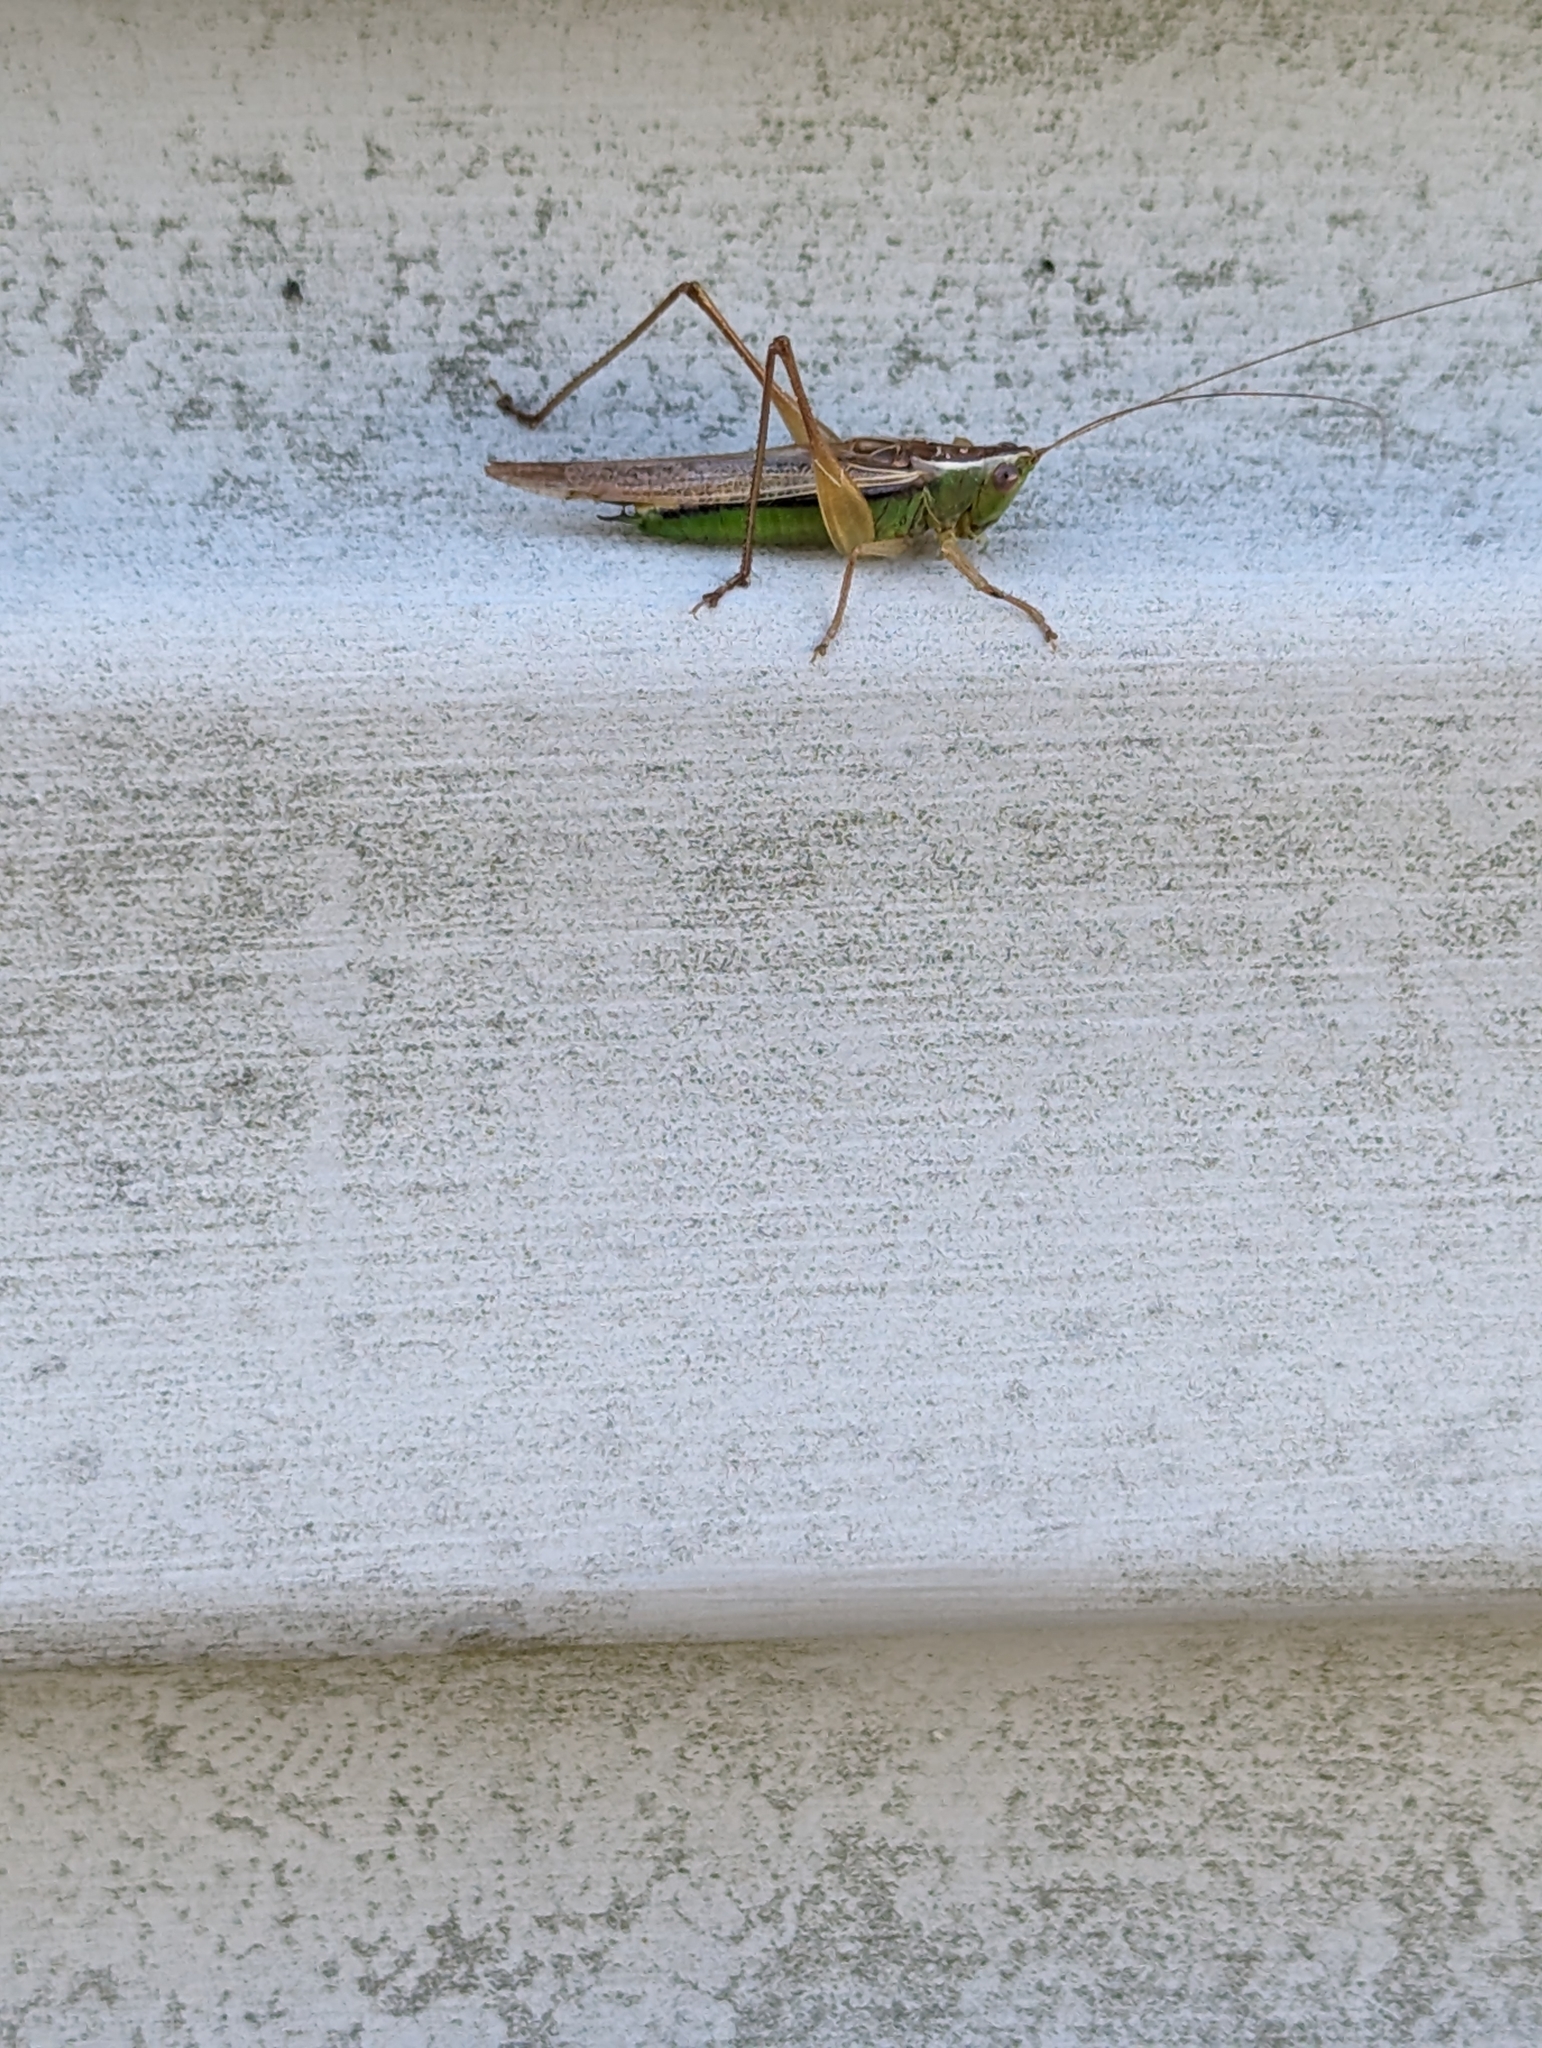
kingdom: Animalia
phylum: Arthropoda
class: Insecta
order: Orthoptera
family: Tettigoniidae
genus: Conocephalus
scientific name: Conocephalus albescens
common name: Whitish meadow katydid
